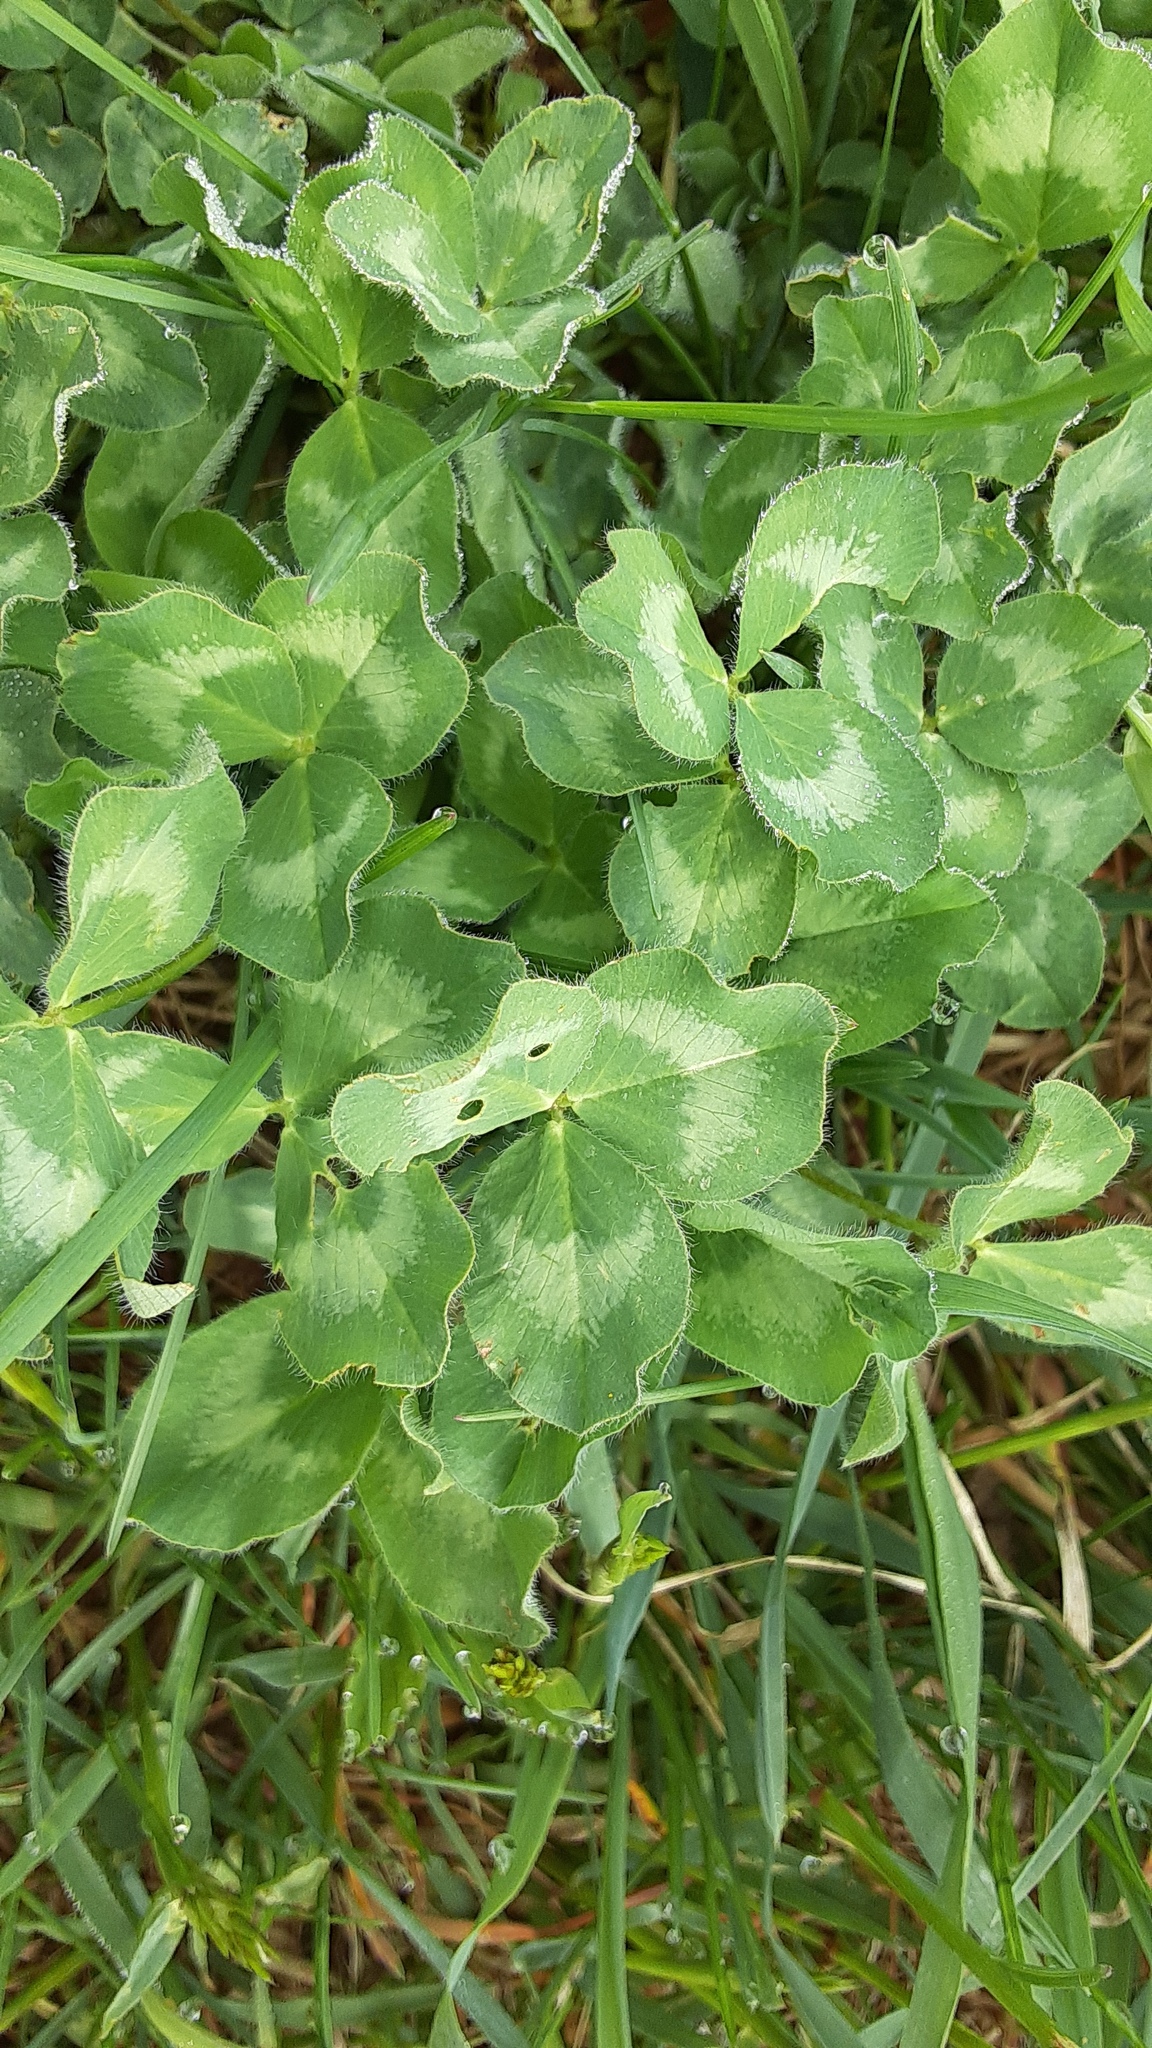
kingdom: Plantae
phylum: Tracheophyta
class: Magnoliopsida
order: Fabales
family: Fabaceae
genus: Trifolium
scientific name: Trifolium pratense
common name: Red clover
